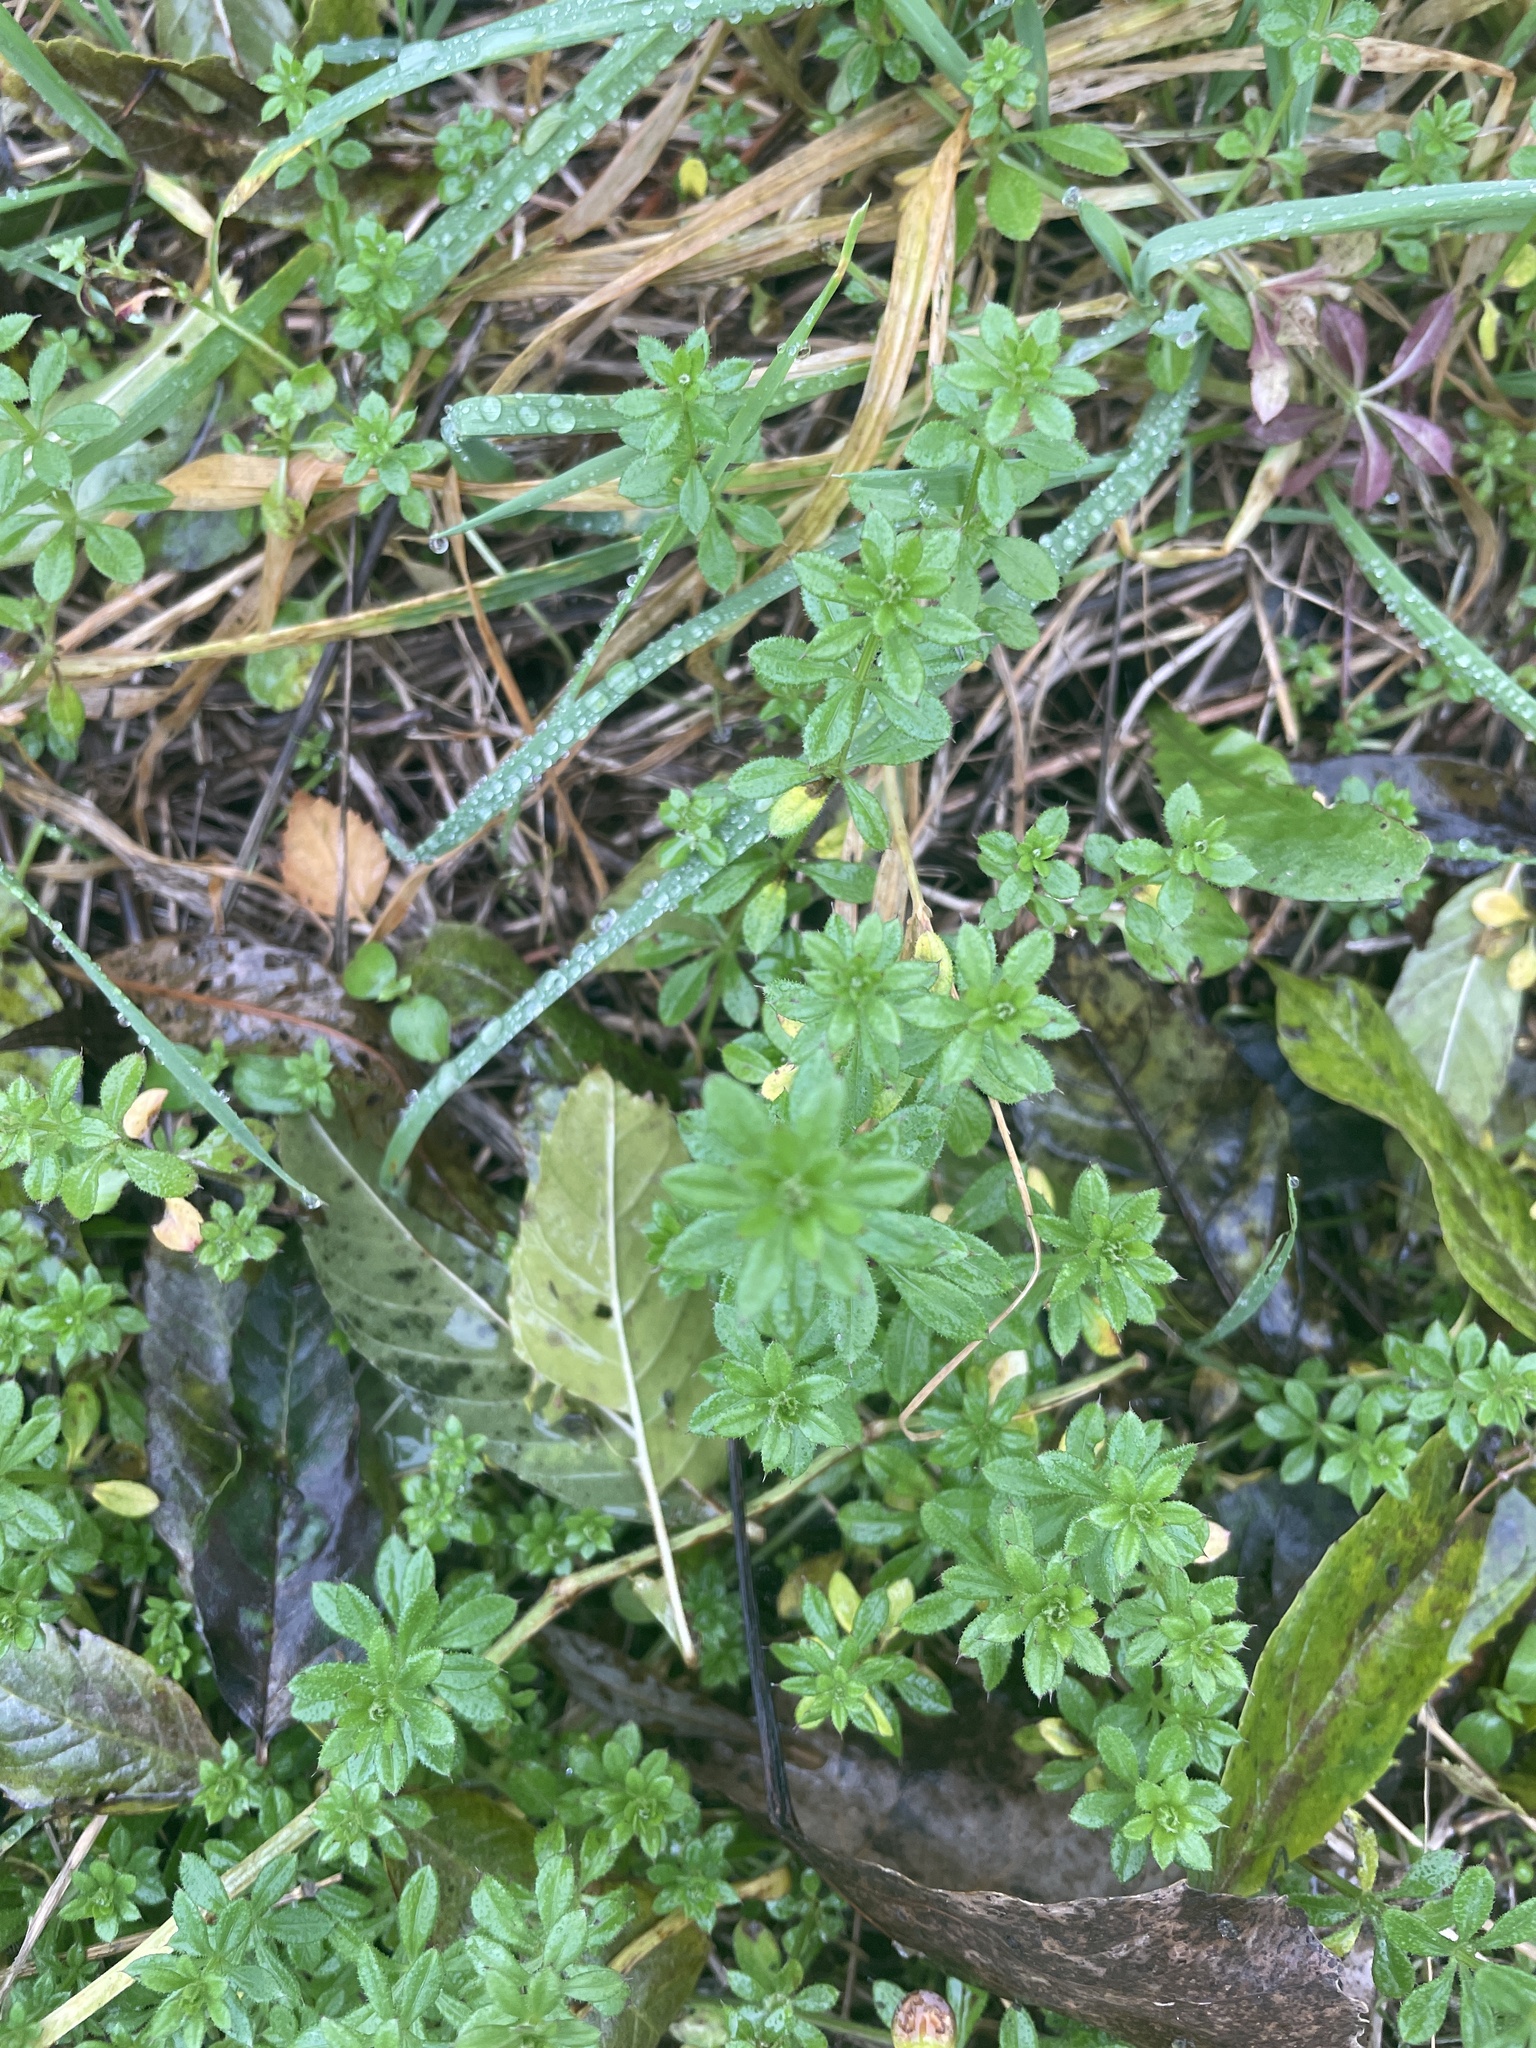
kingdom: Plantae
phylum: Tracheophyta
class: Magnoliopsida
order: Gentianales
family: Rubiaceae
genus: Galium
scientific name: Galium aparine
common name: Cleavers
